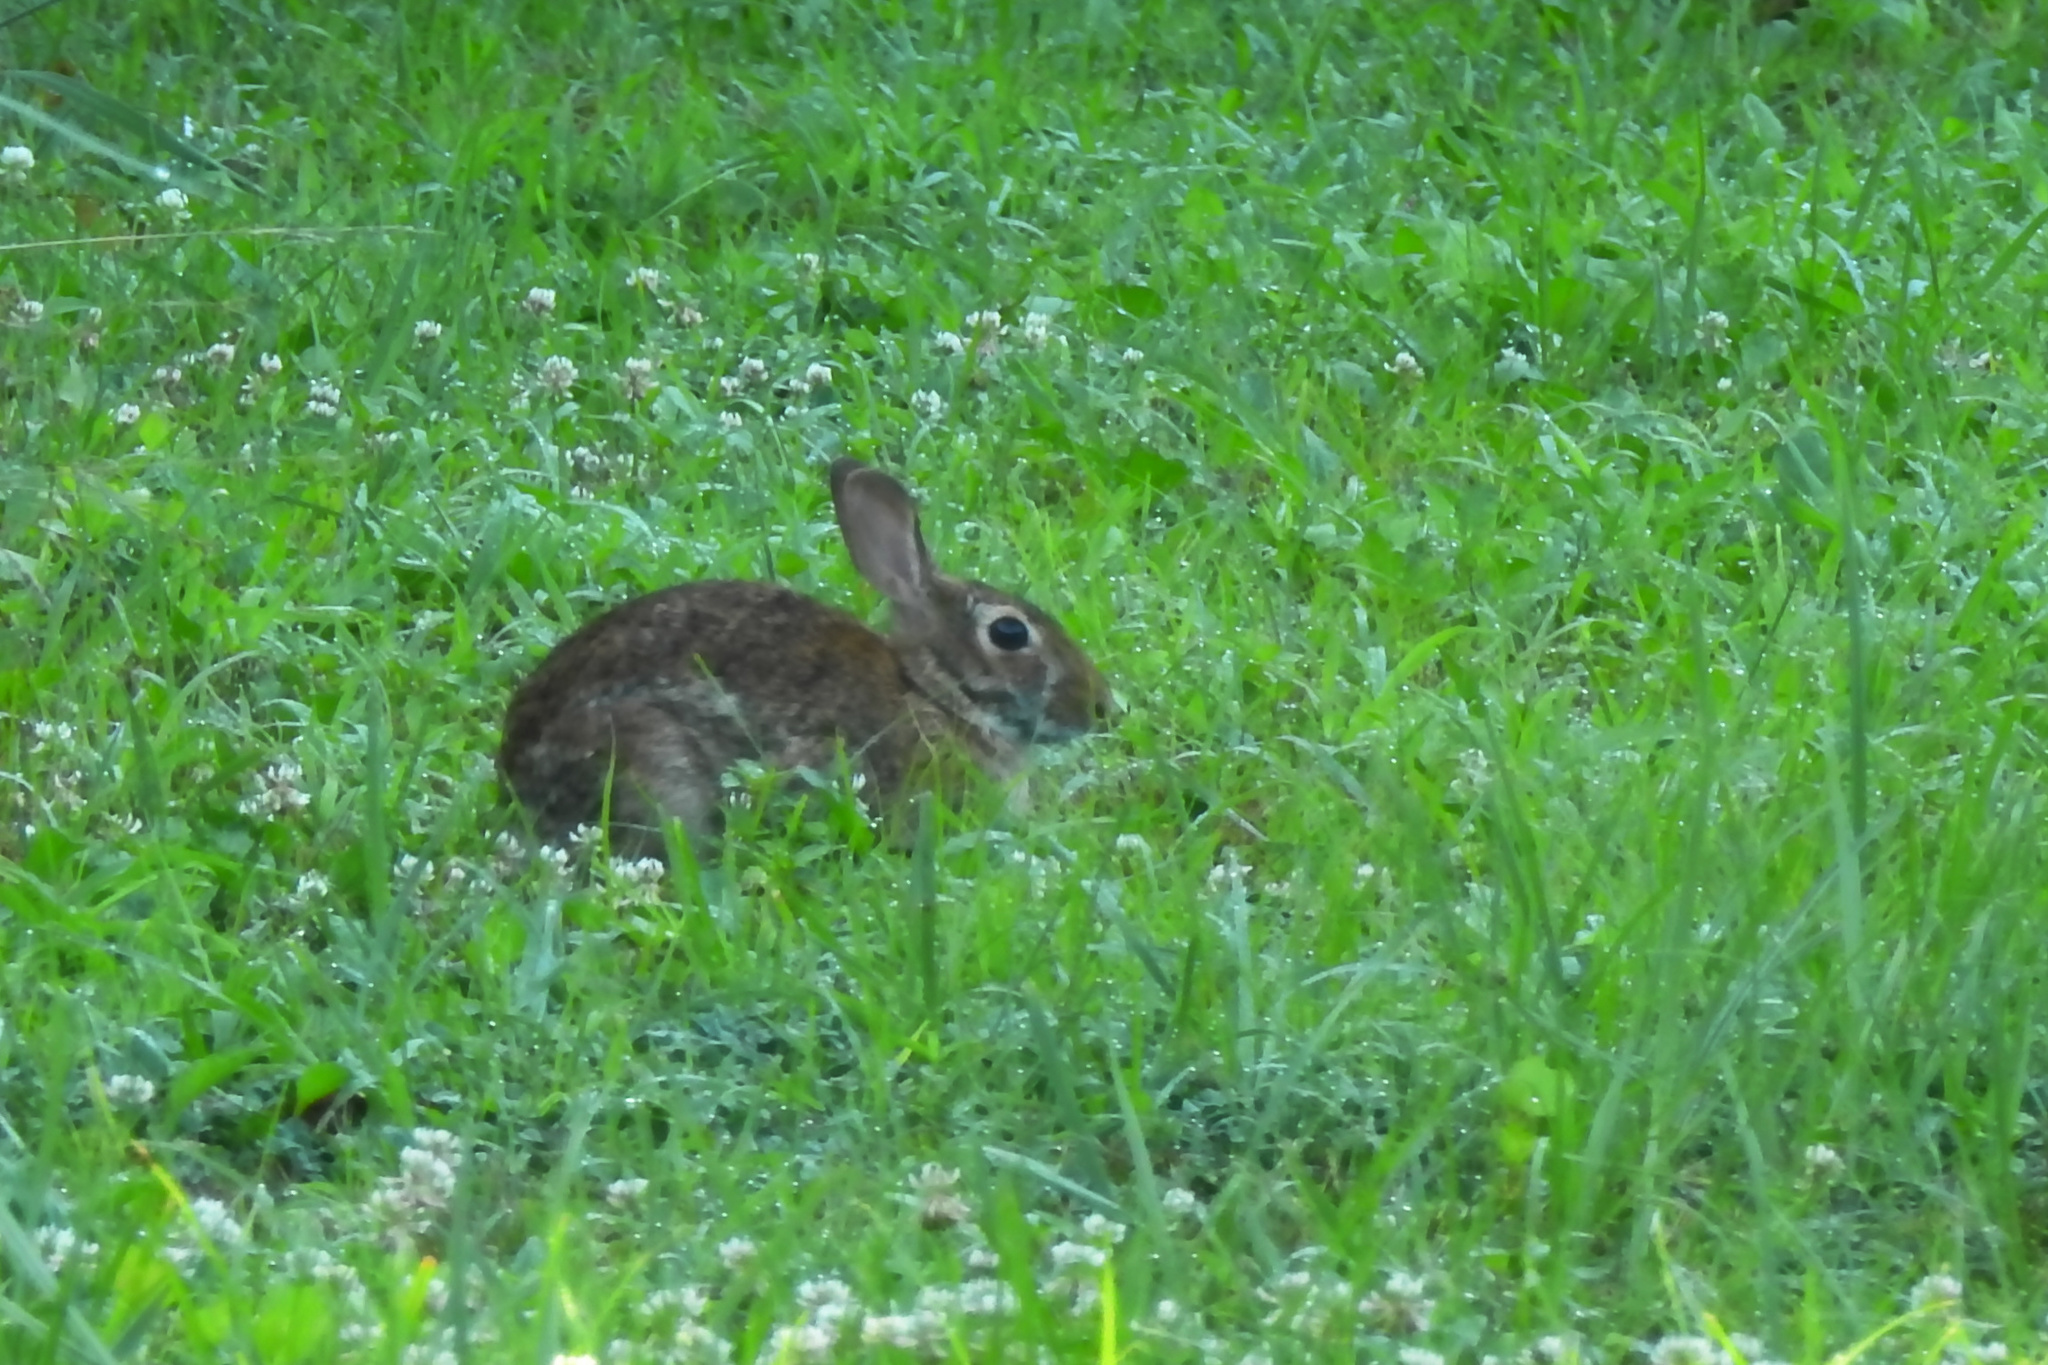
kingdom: Animalia
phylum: Chordata
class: Mammalia
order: Lagomorpha
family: Leporidae
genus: Sylvilagus
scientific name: Sylvilagus floridanus
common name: Eastern cottontail
